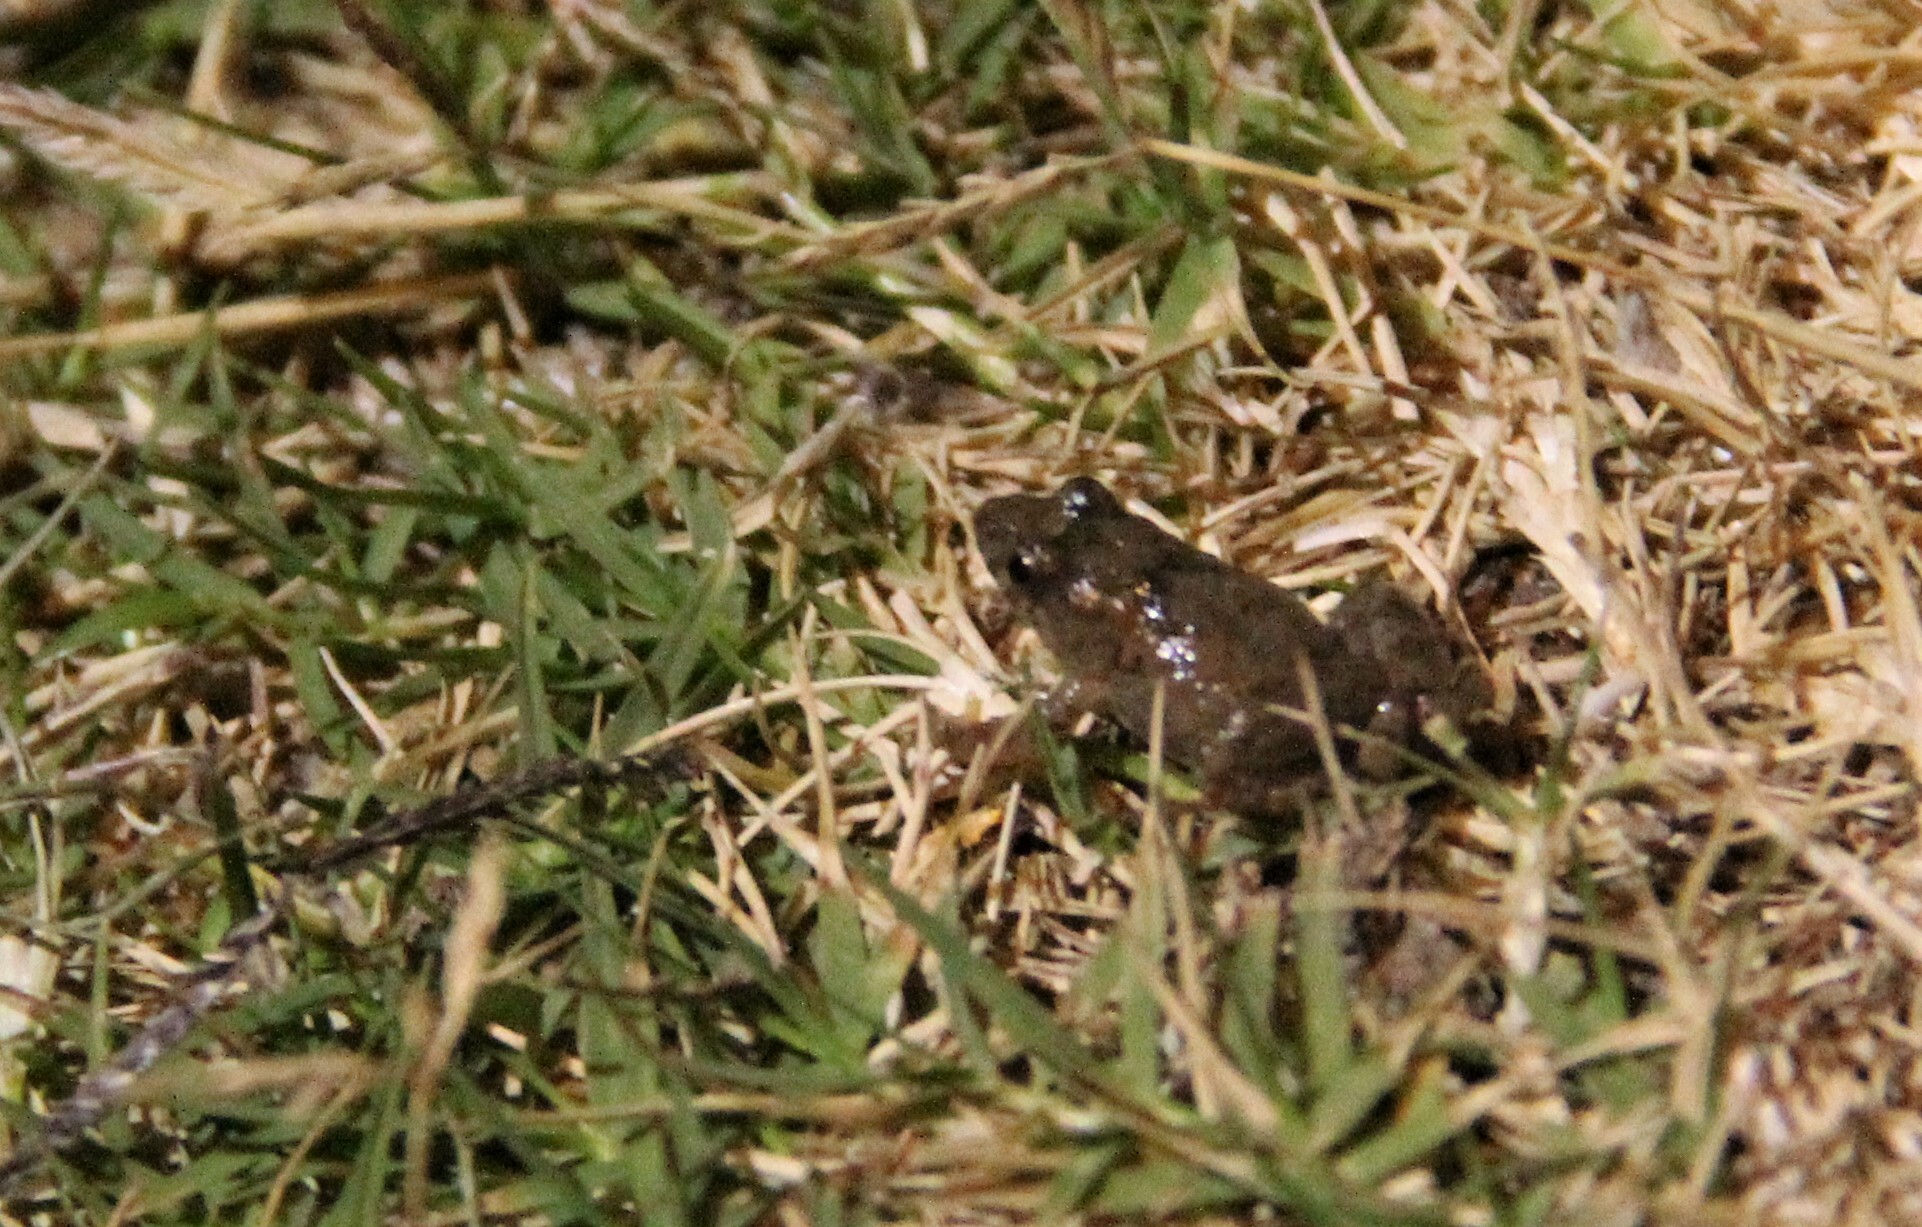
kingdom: Animalia
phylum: Chordata
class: Amphibia
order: Anura
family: Leptodactylidae
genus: Pseudopaludicola
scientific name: Pseudopaludicola falcipes
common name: Hensel’s swamp frog
